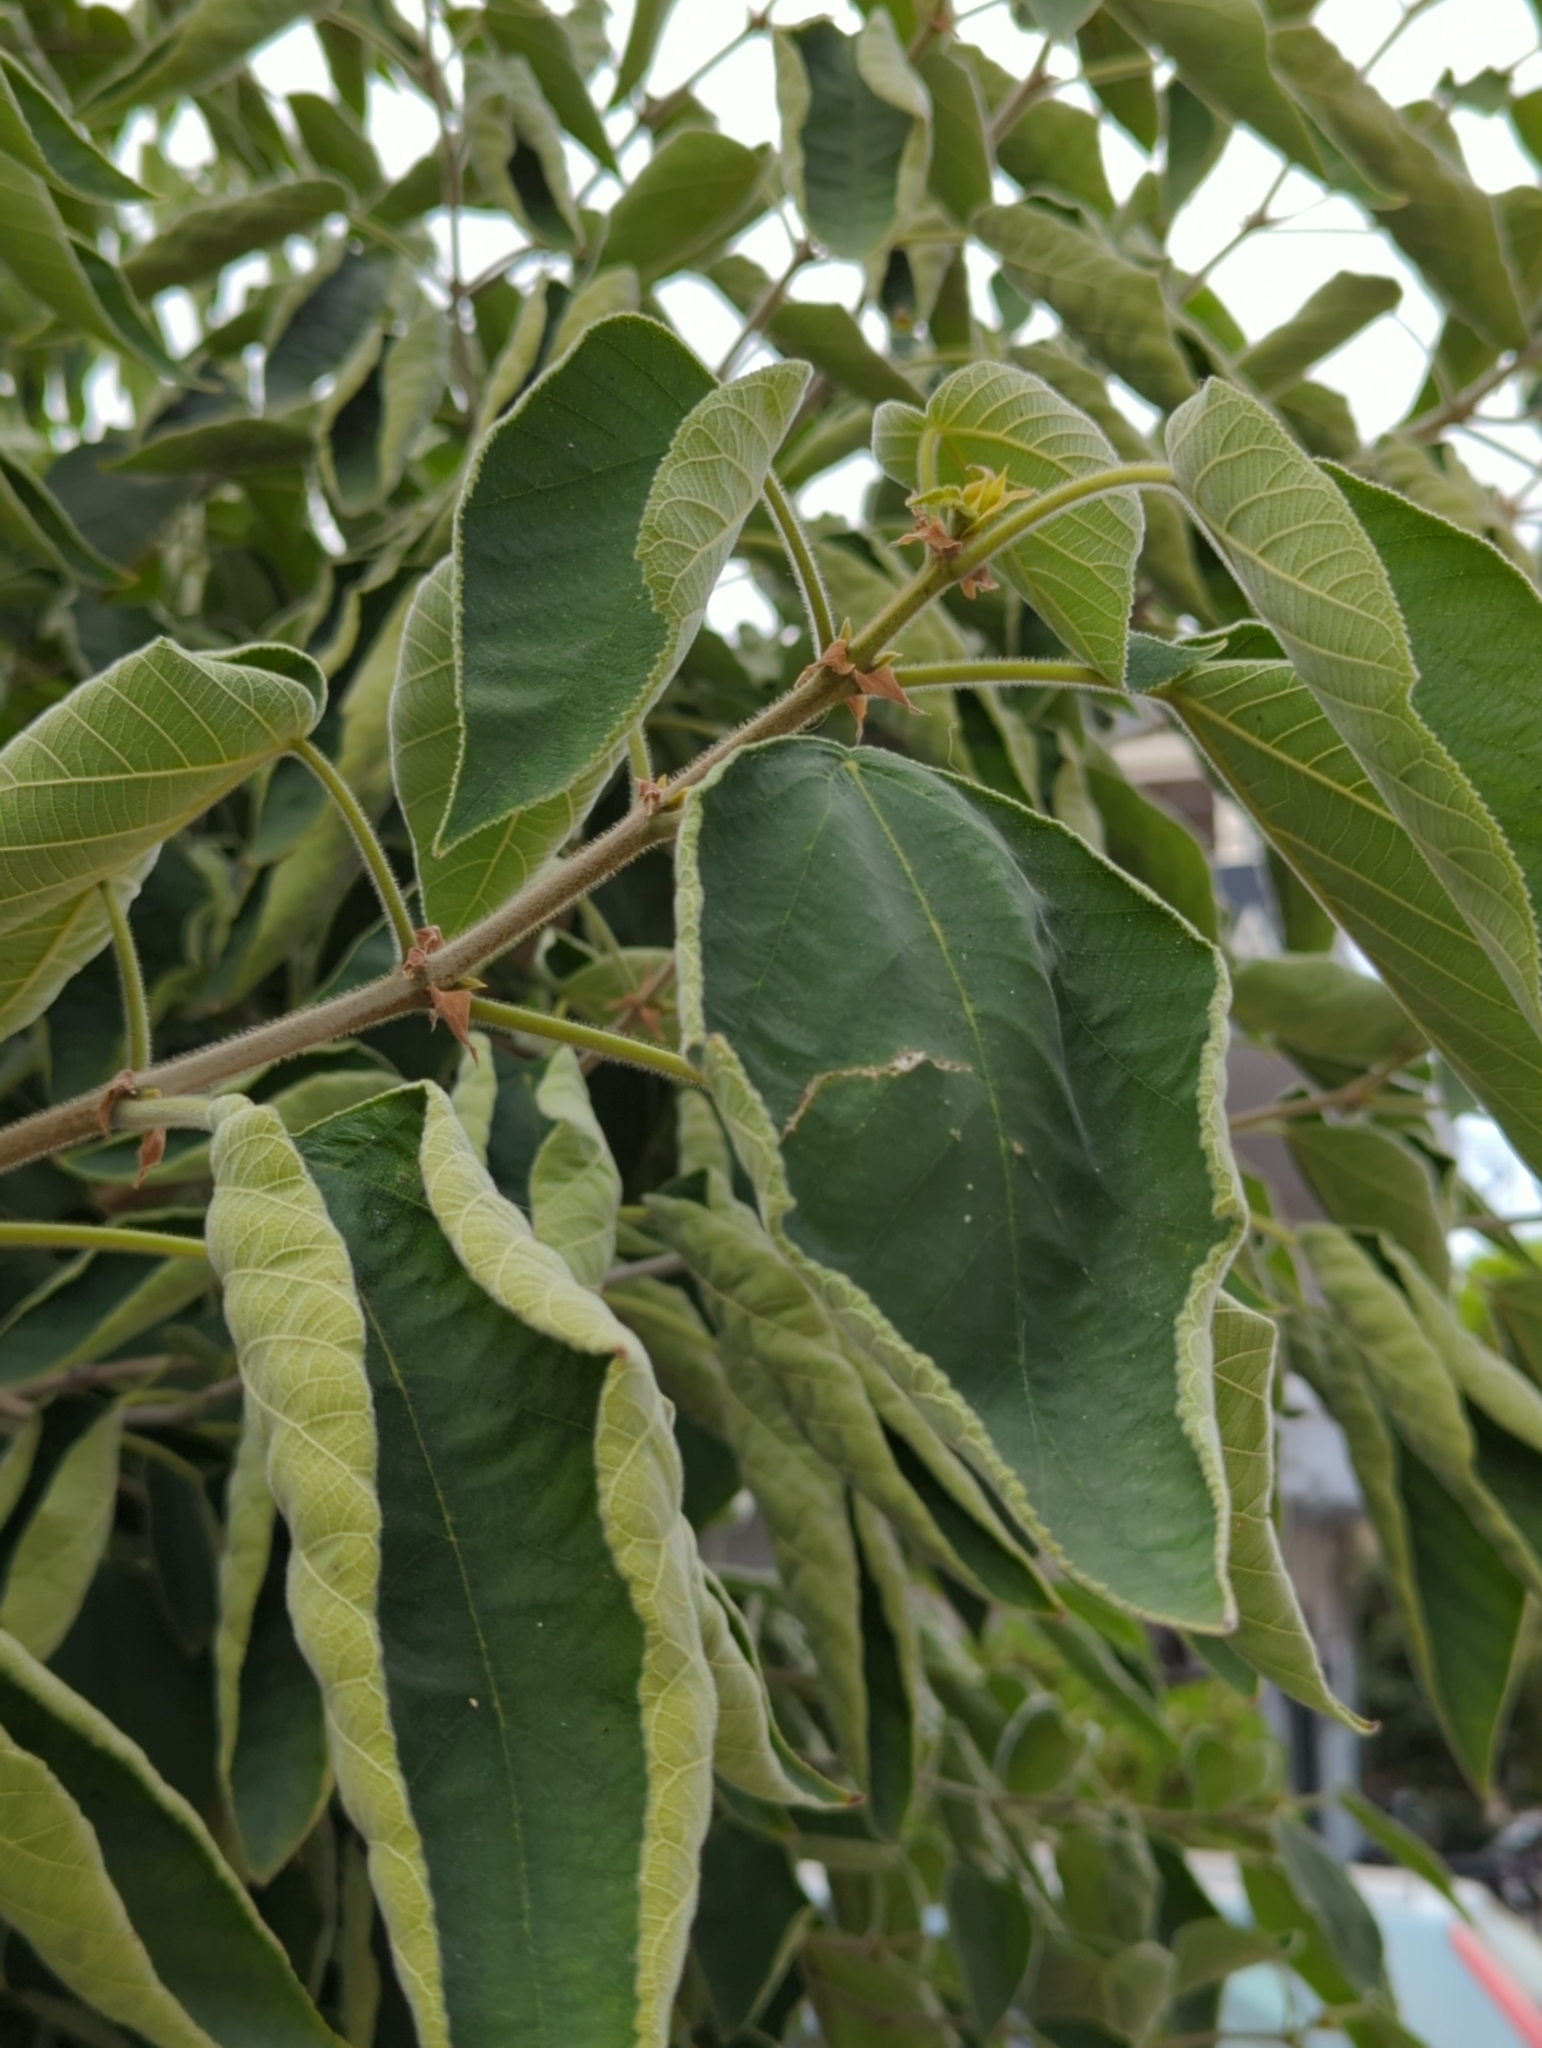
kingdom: Plantae
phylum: Tracheophyta
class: Magnoliopsida
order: Rosales
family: Moraceae
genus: Broussonetia
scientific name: Broussonetia papyrifera
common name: Paper mulberry
